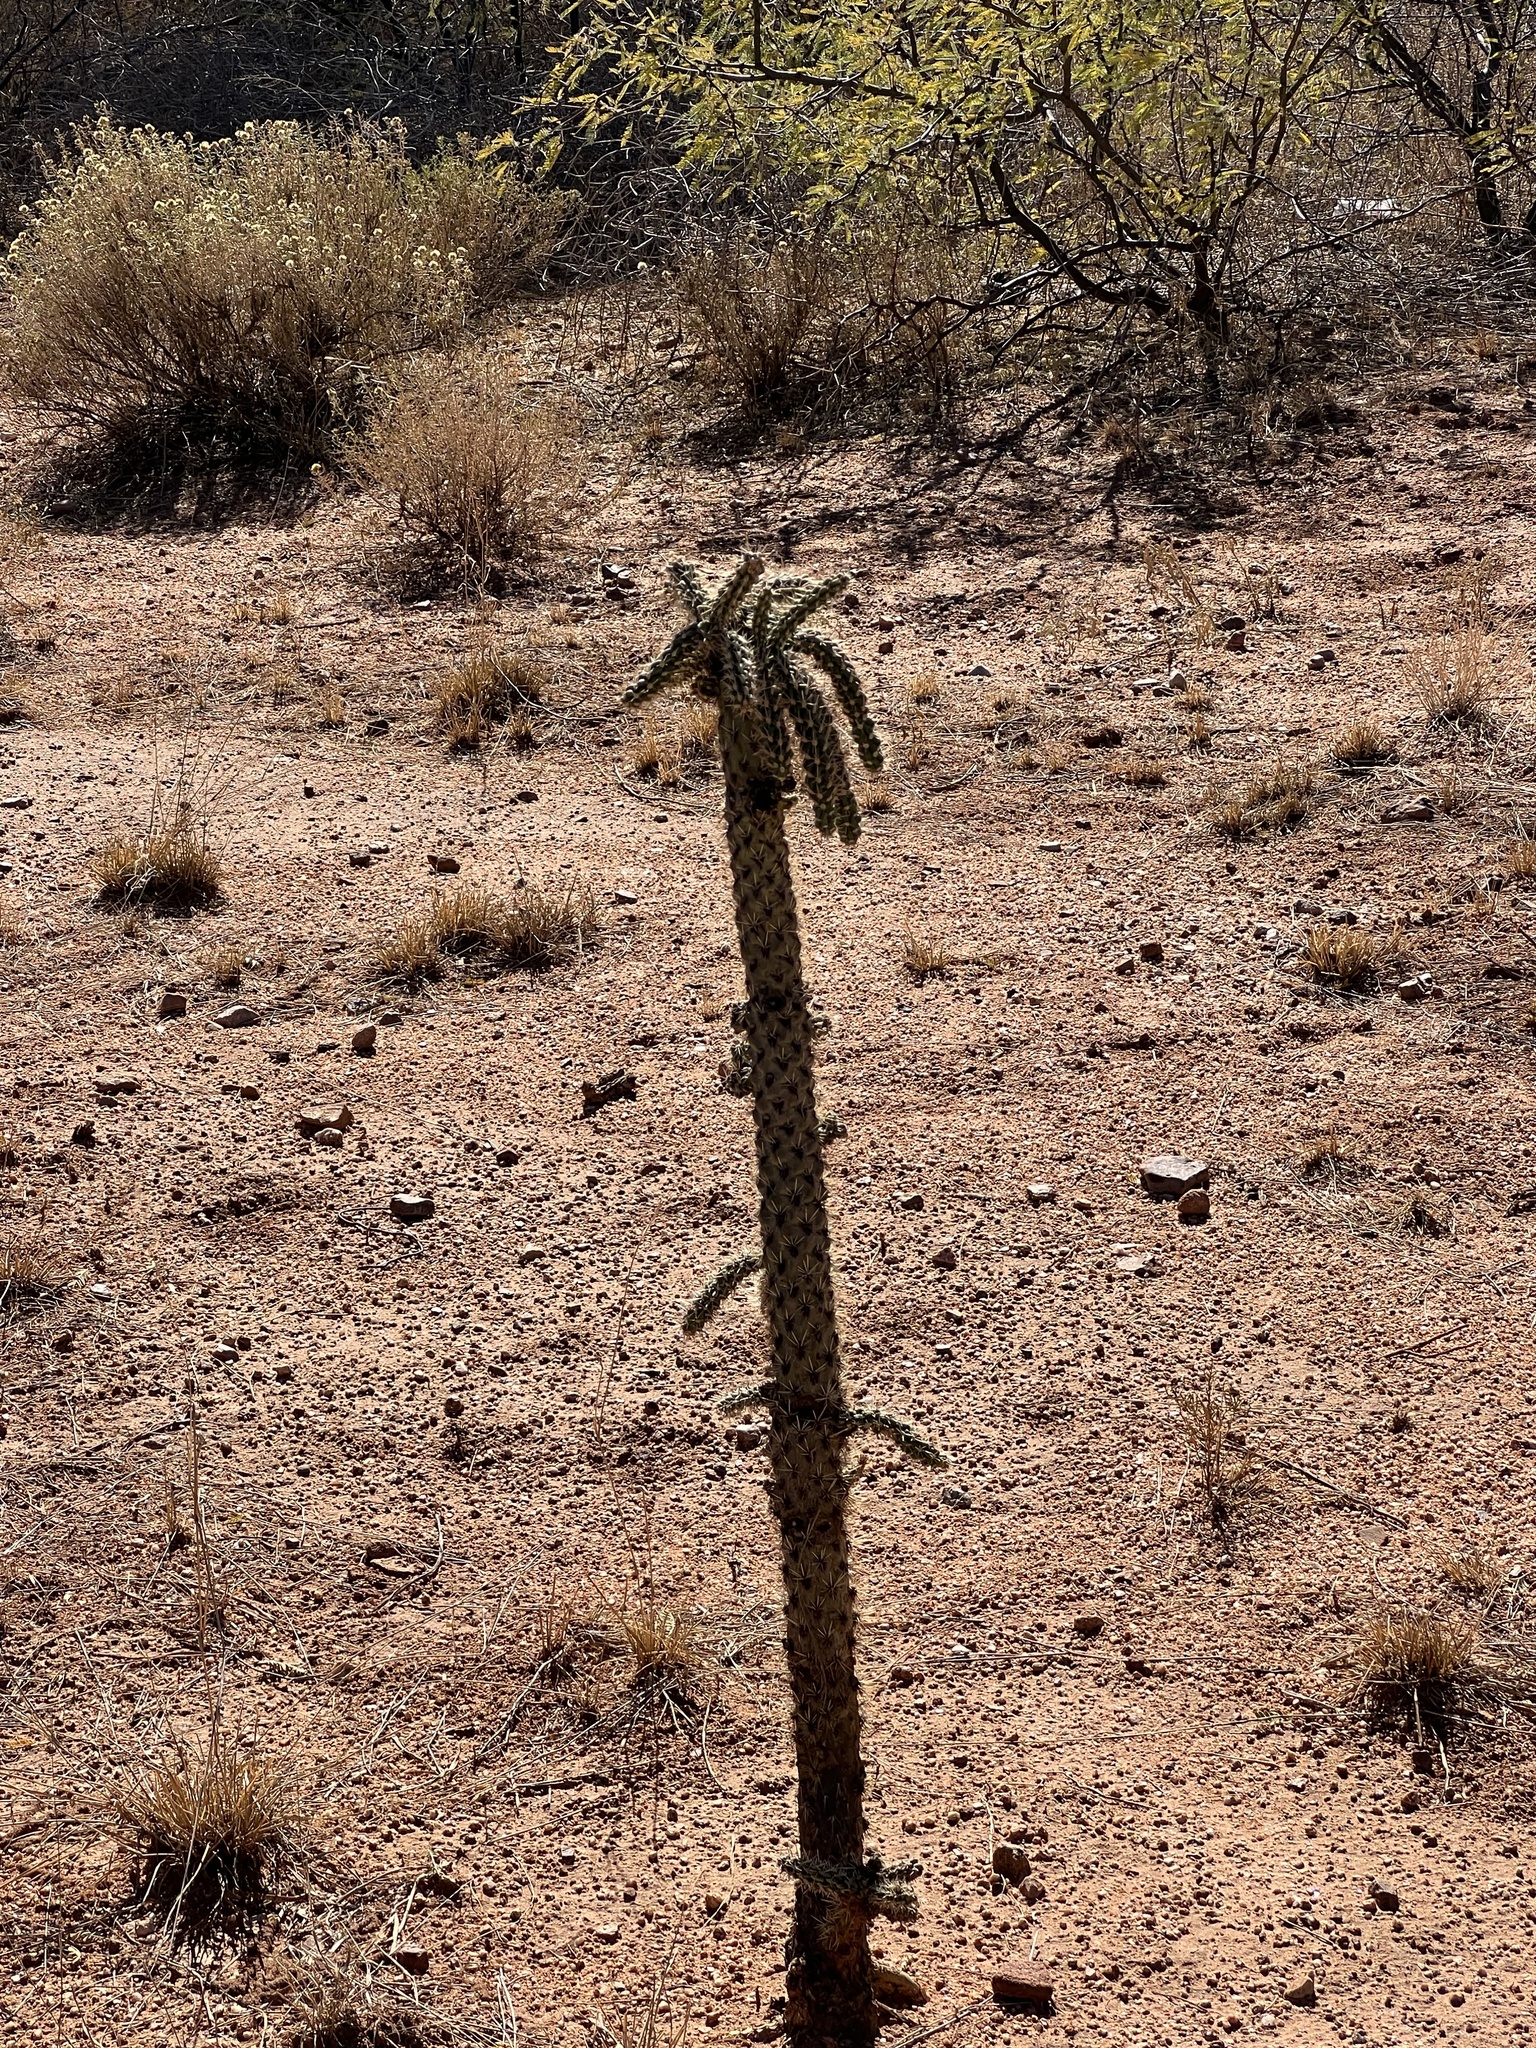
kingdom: Plantae
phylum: Tracheophyta
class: Magnoliopsida
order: Caryophyllales
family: Cactaceae
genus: Cylindropuntia
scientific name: Cylindropuntia imbricata
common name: Candelabrum cactus
